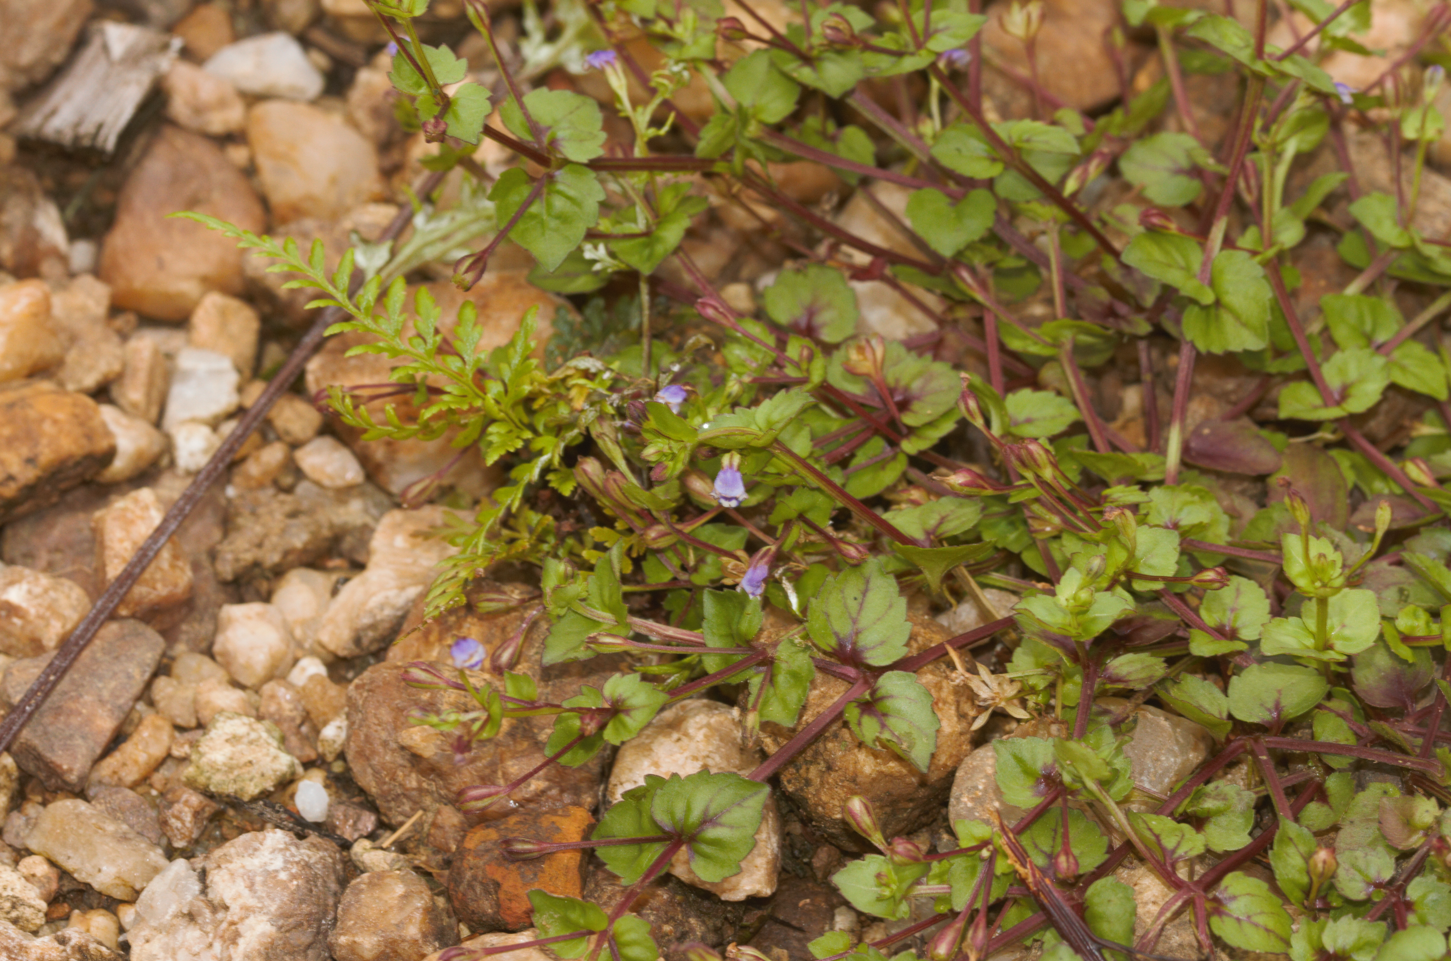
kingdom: Plantae
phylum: Tracheophyta
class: Magnoliopsida
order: Lamiales
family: Linderniaceae
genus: Torenia
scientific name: Torenia crustacea
